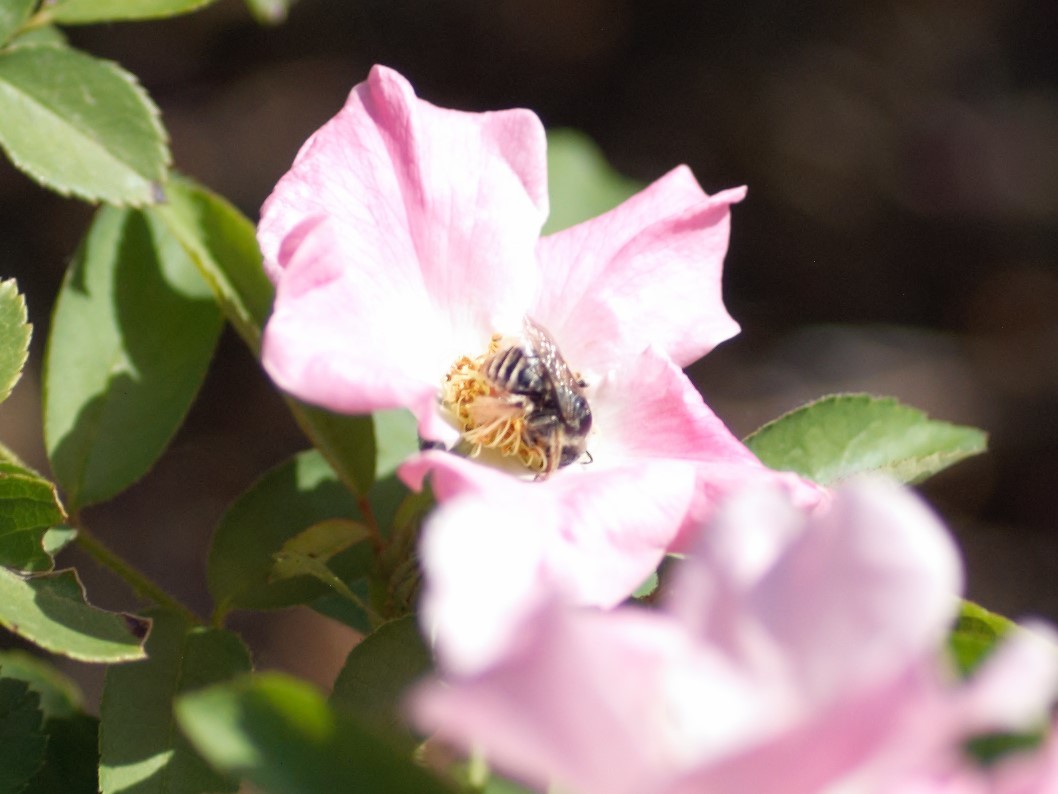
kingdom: Animalia
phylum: Arthropoda
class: Insecta
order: Hymenoptera
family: Apidae
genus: Diadasia
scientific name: Diadasia
